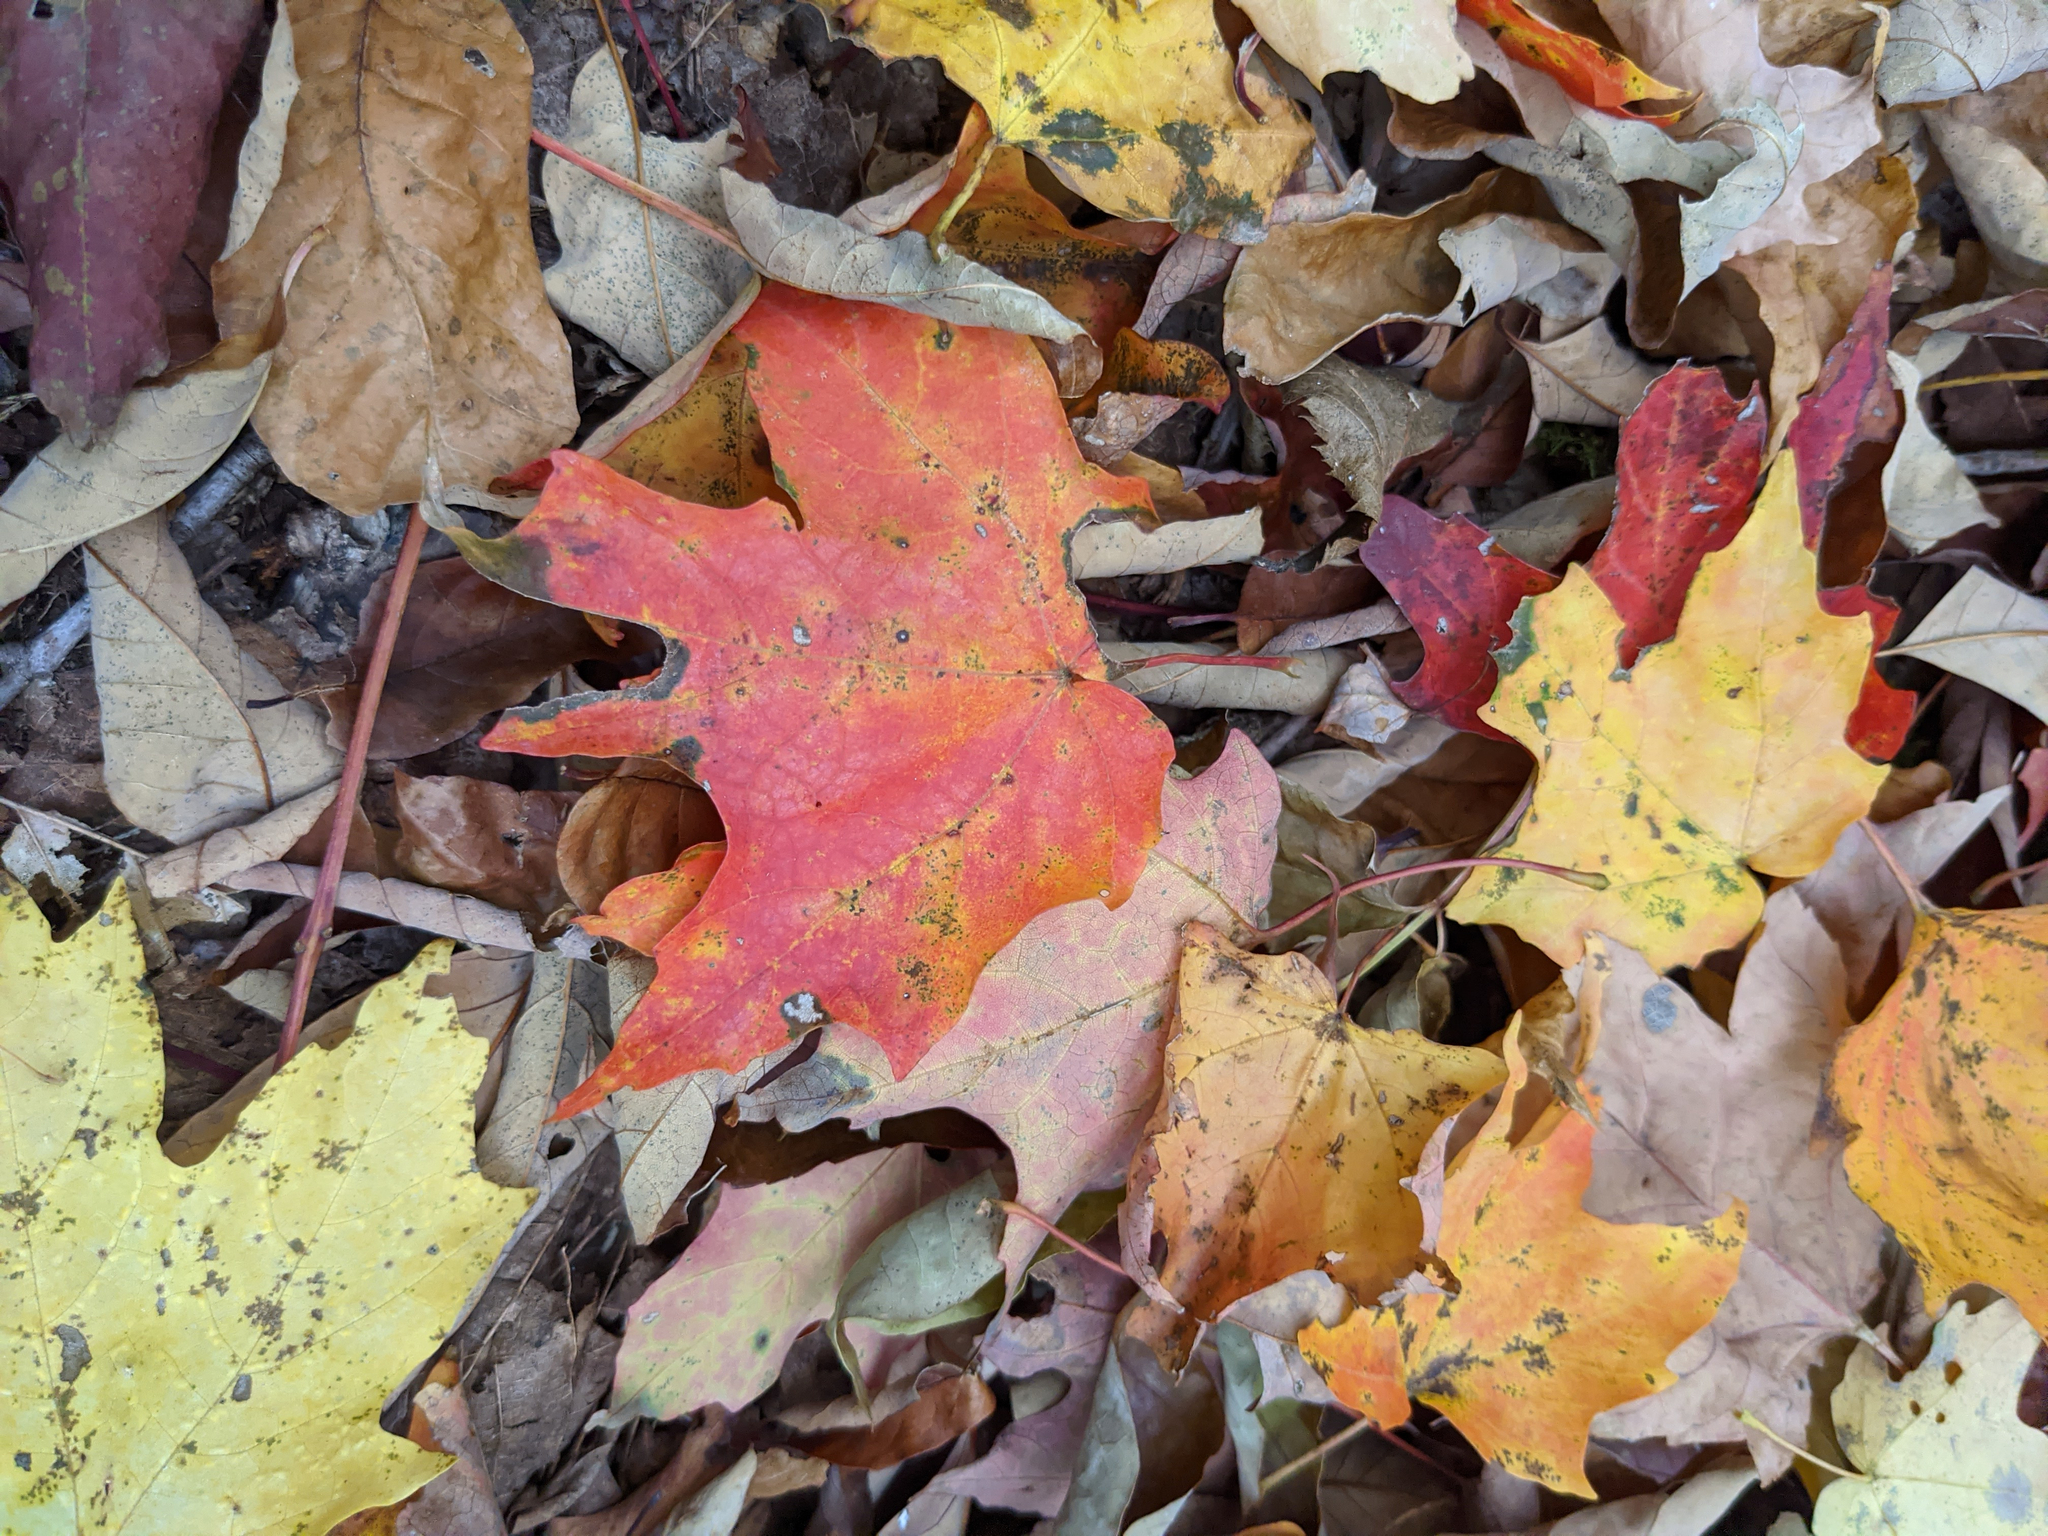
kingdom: Plantae
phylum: Tracheophyta
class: Magnoliopsida
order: Sapindales
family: Sapindaceae
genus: Acer
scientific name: Acer saccharum
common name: Sugar maple
